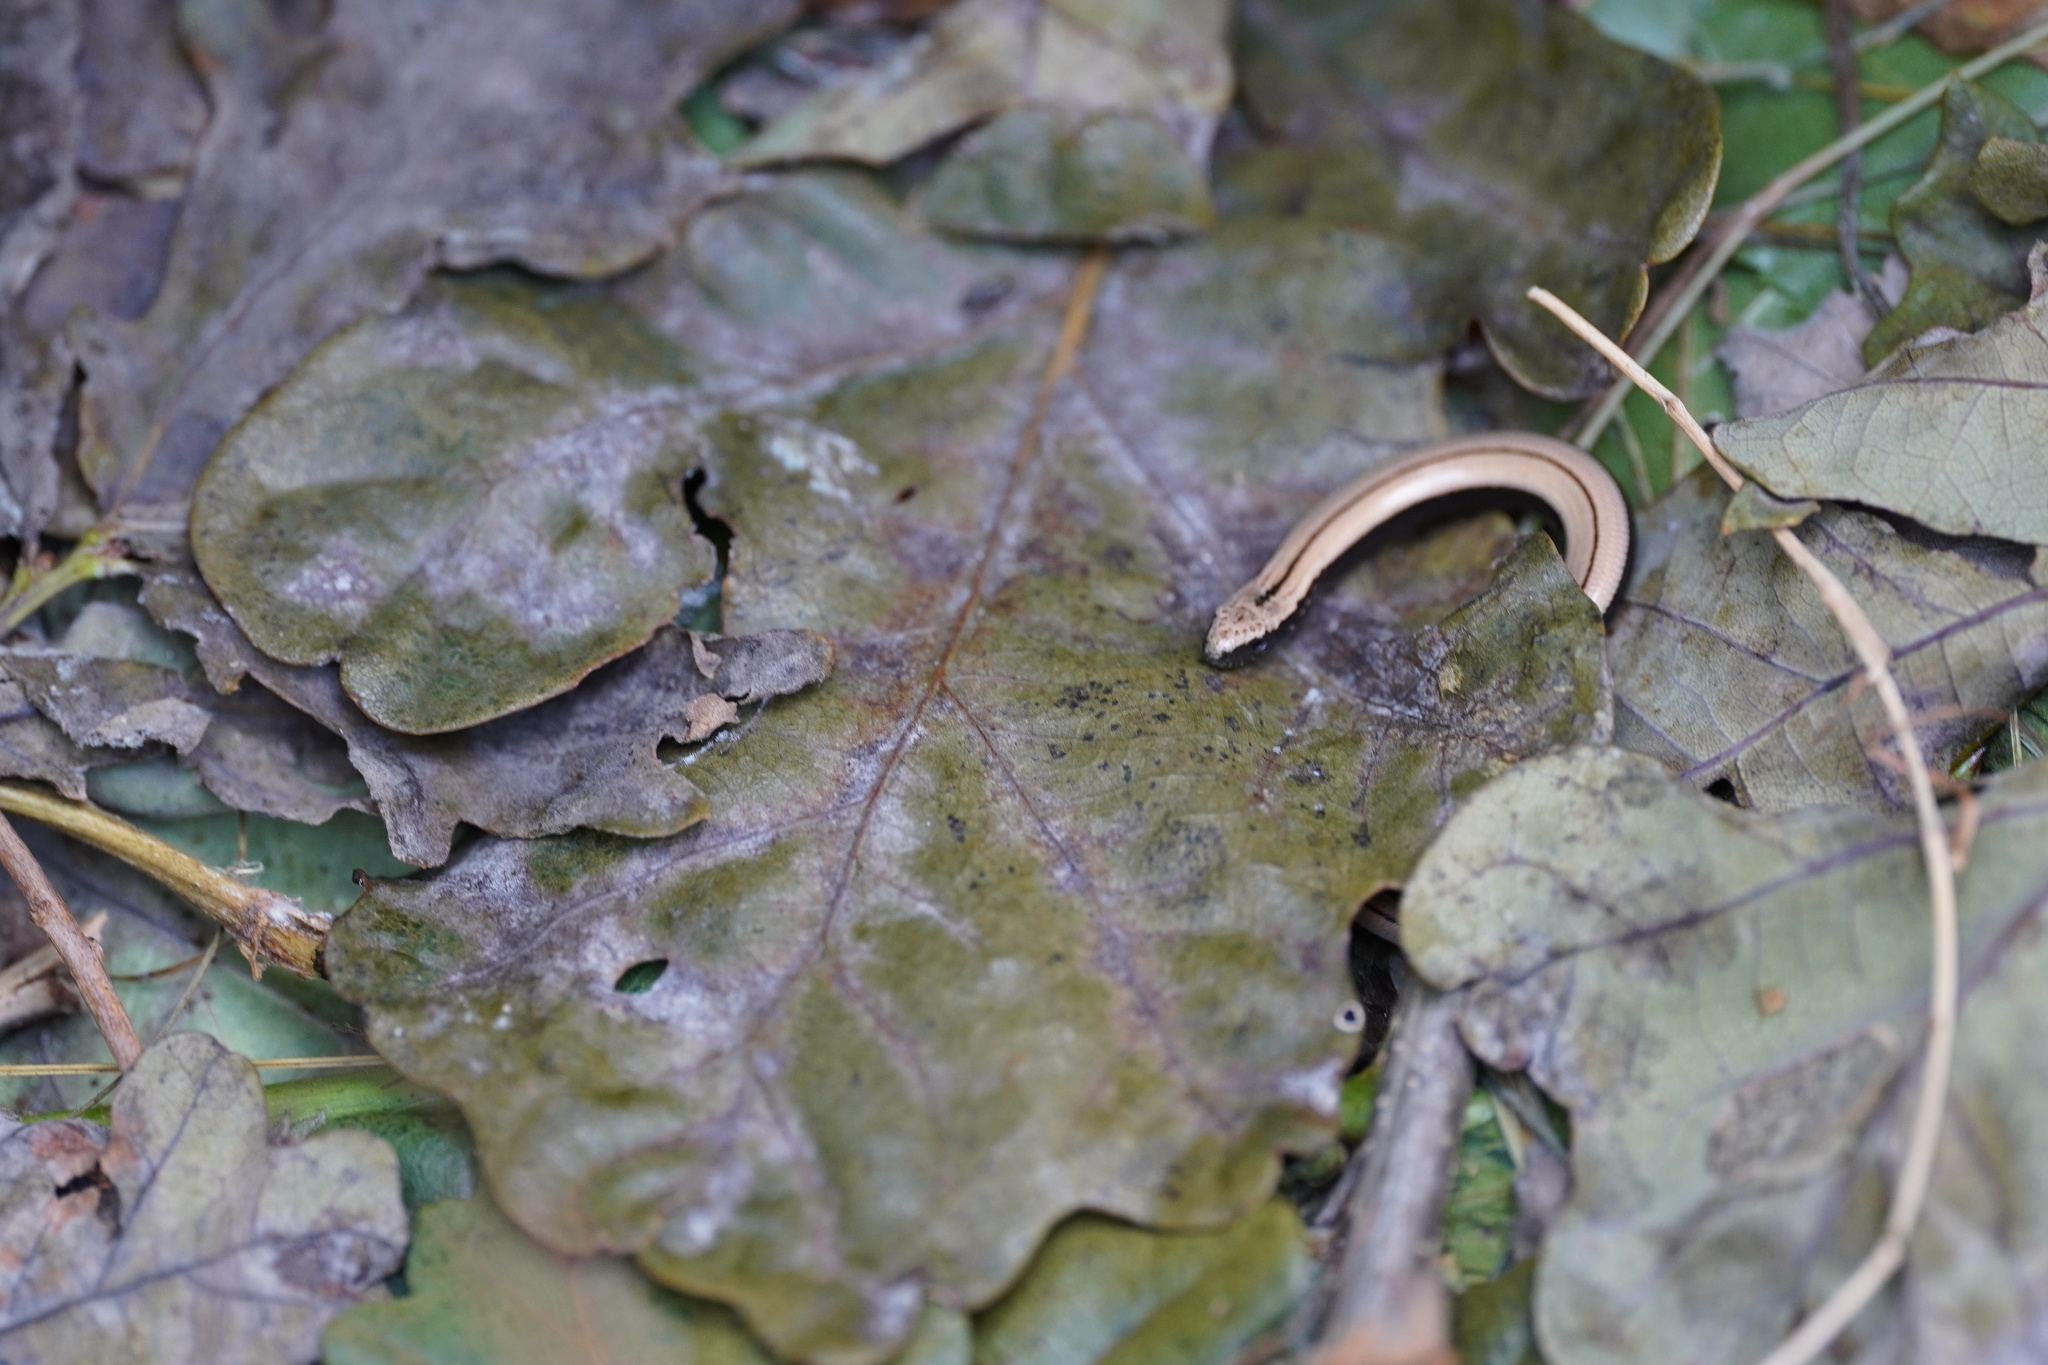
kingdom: Animalia
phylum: Chordata
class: Squamata
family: Anguidae
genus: Anguis
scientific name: Anguis fragilis
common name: Slow worm
